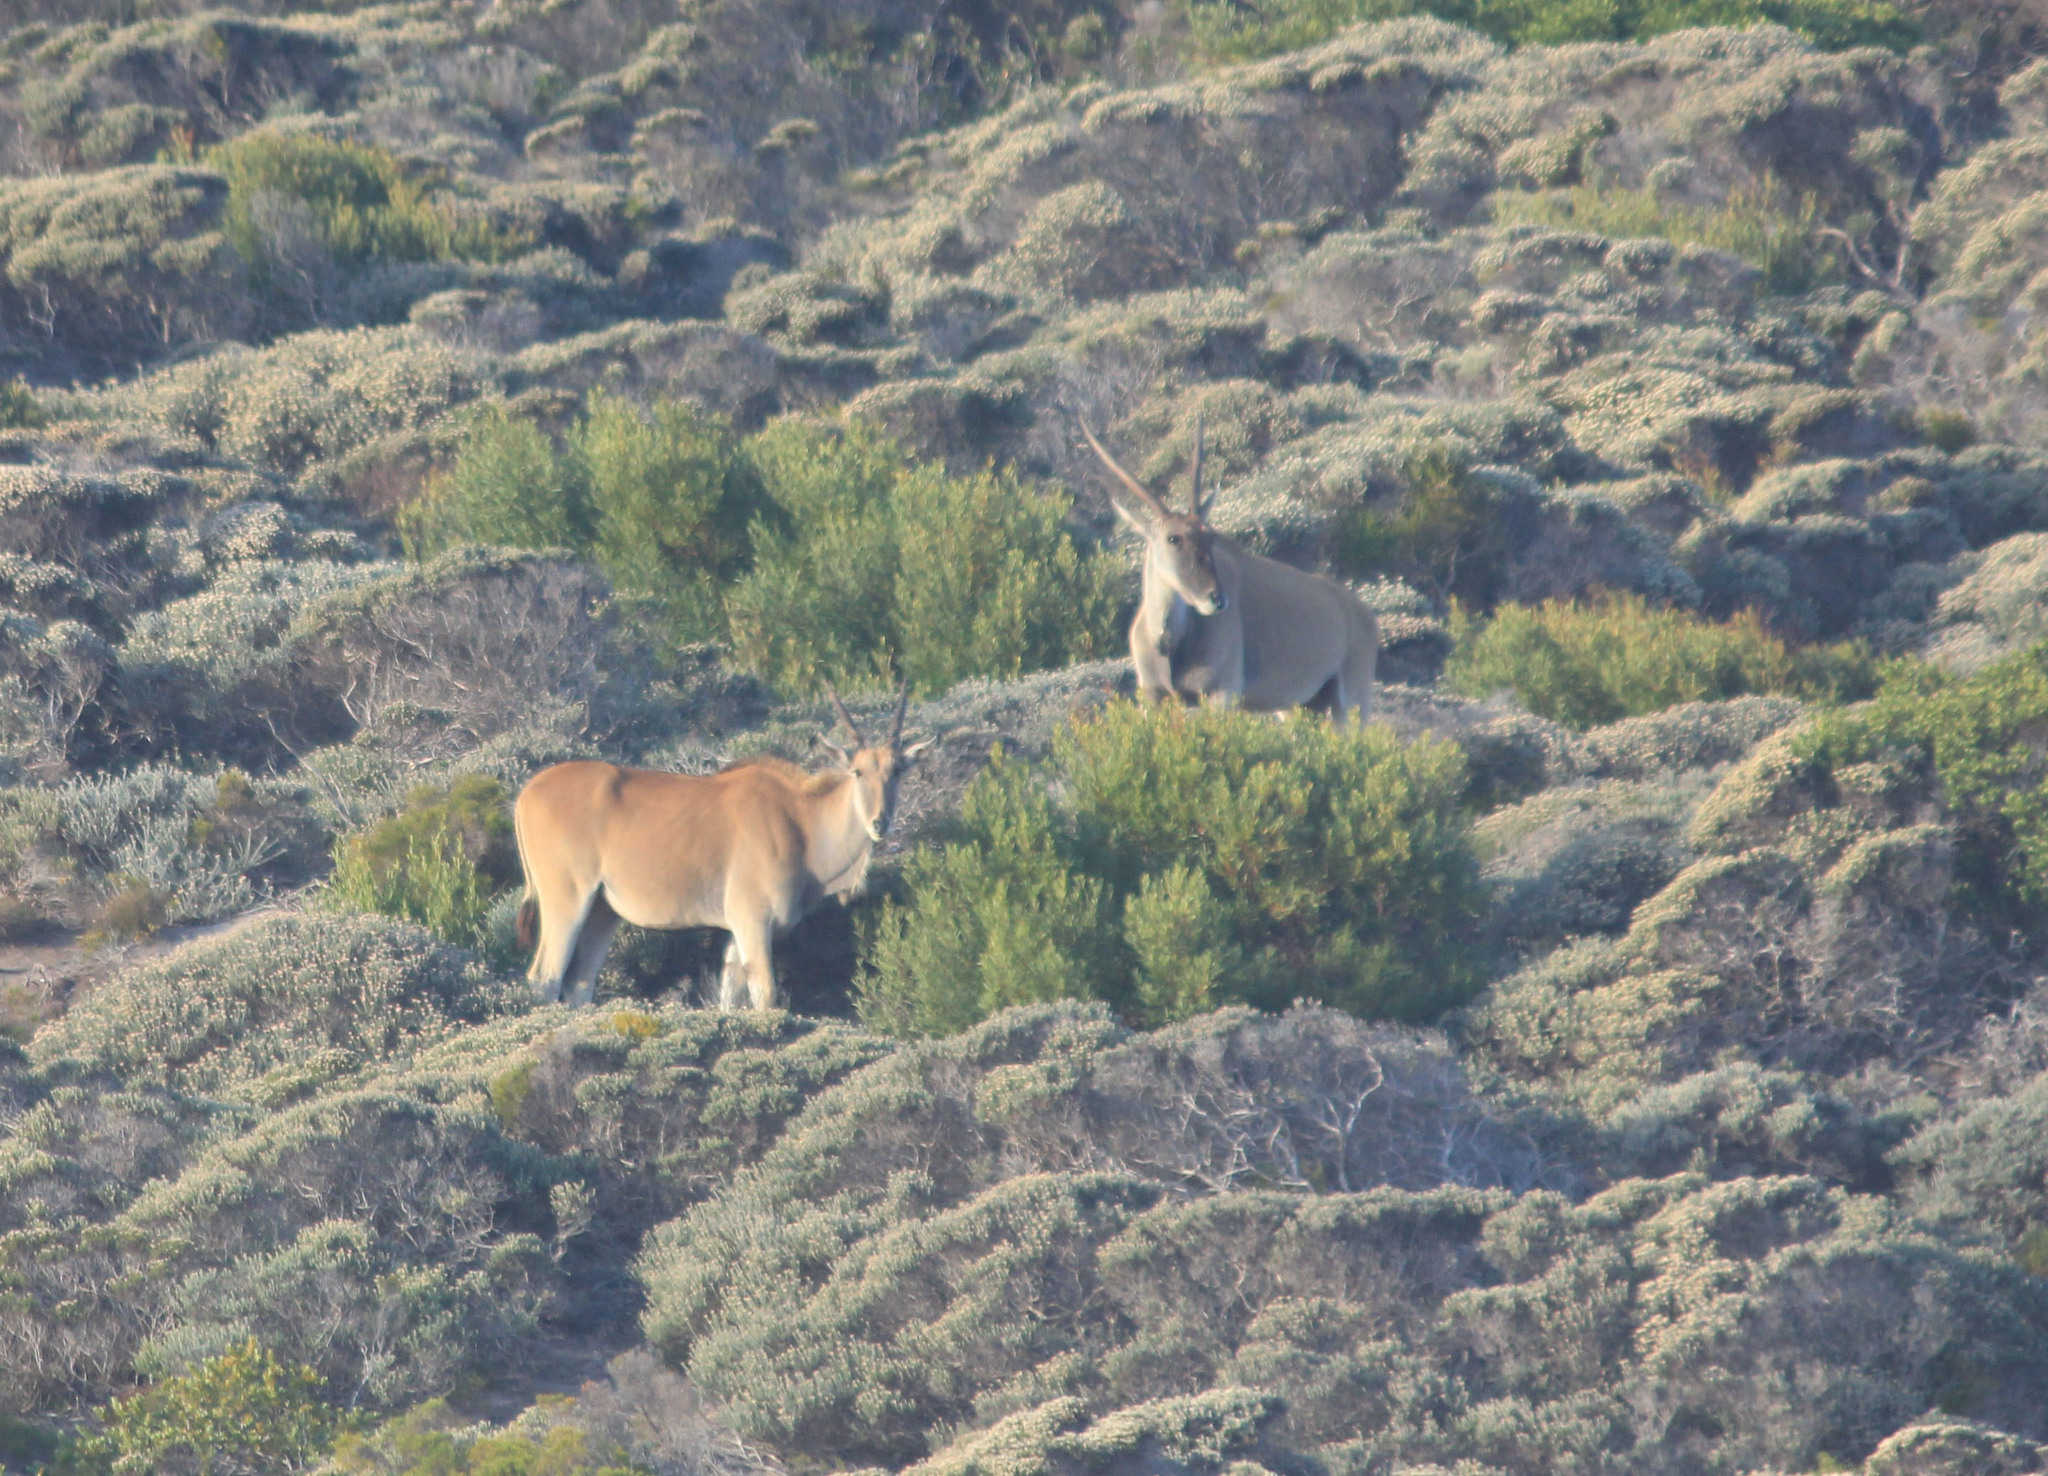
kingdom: Animalia
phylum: Chordata
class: Mammalia
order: Artiodactyla
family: Bovidae
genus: Taurotragus
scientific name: Taurotragus oryx
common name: Common eland
